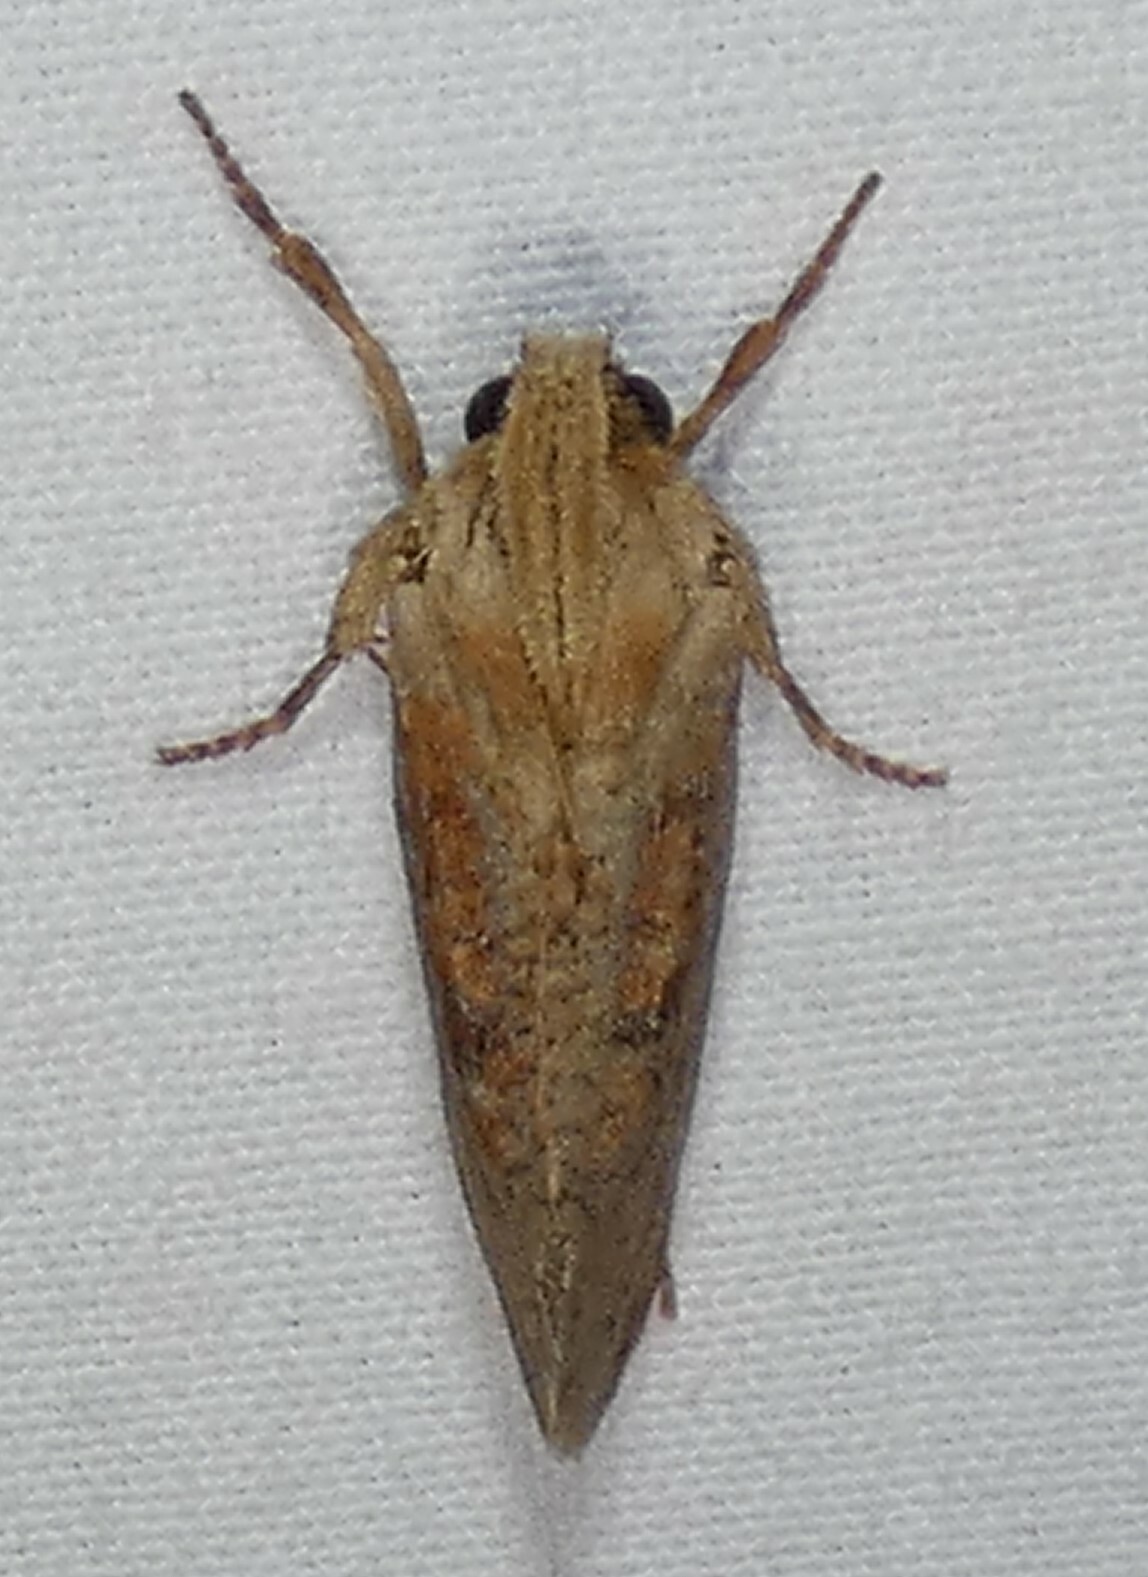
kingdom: Animalia
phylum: Arthropoda
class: Insecta
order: Lepidoptera
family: Tineidae
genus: Acrolophus
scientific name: Acrolophus plumifrontella
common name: Eastern grass tubeworm moth
